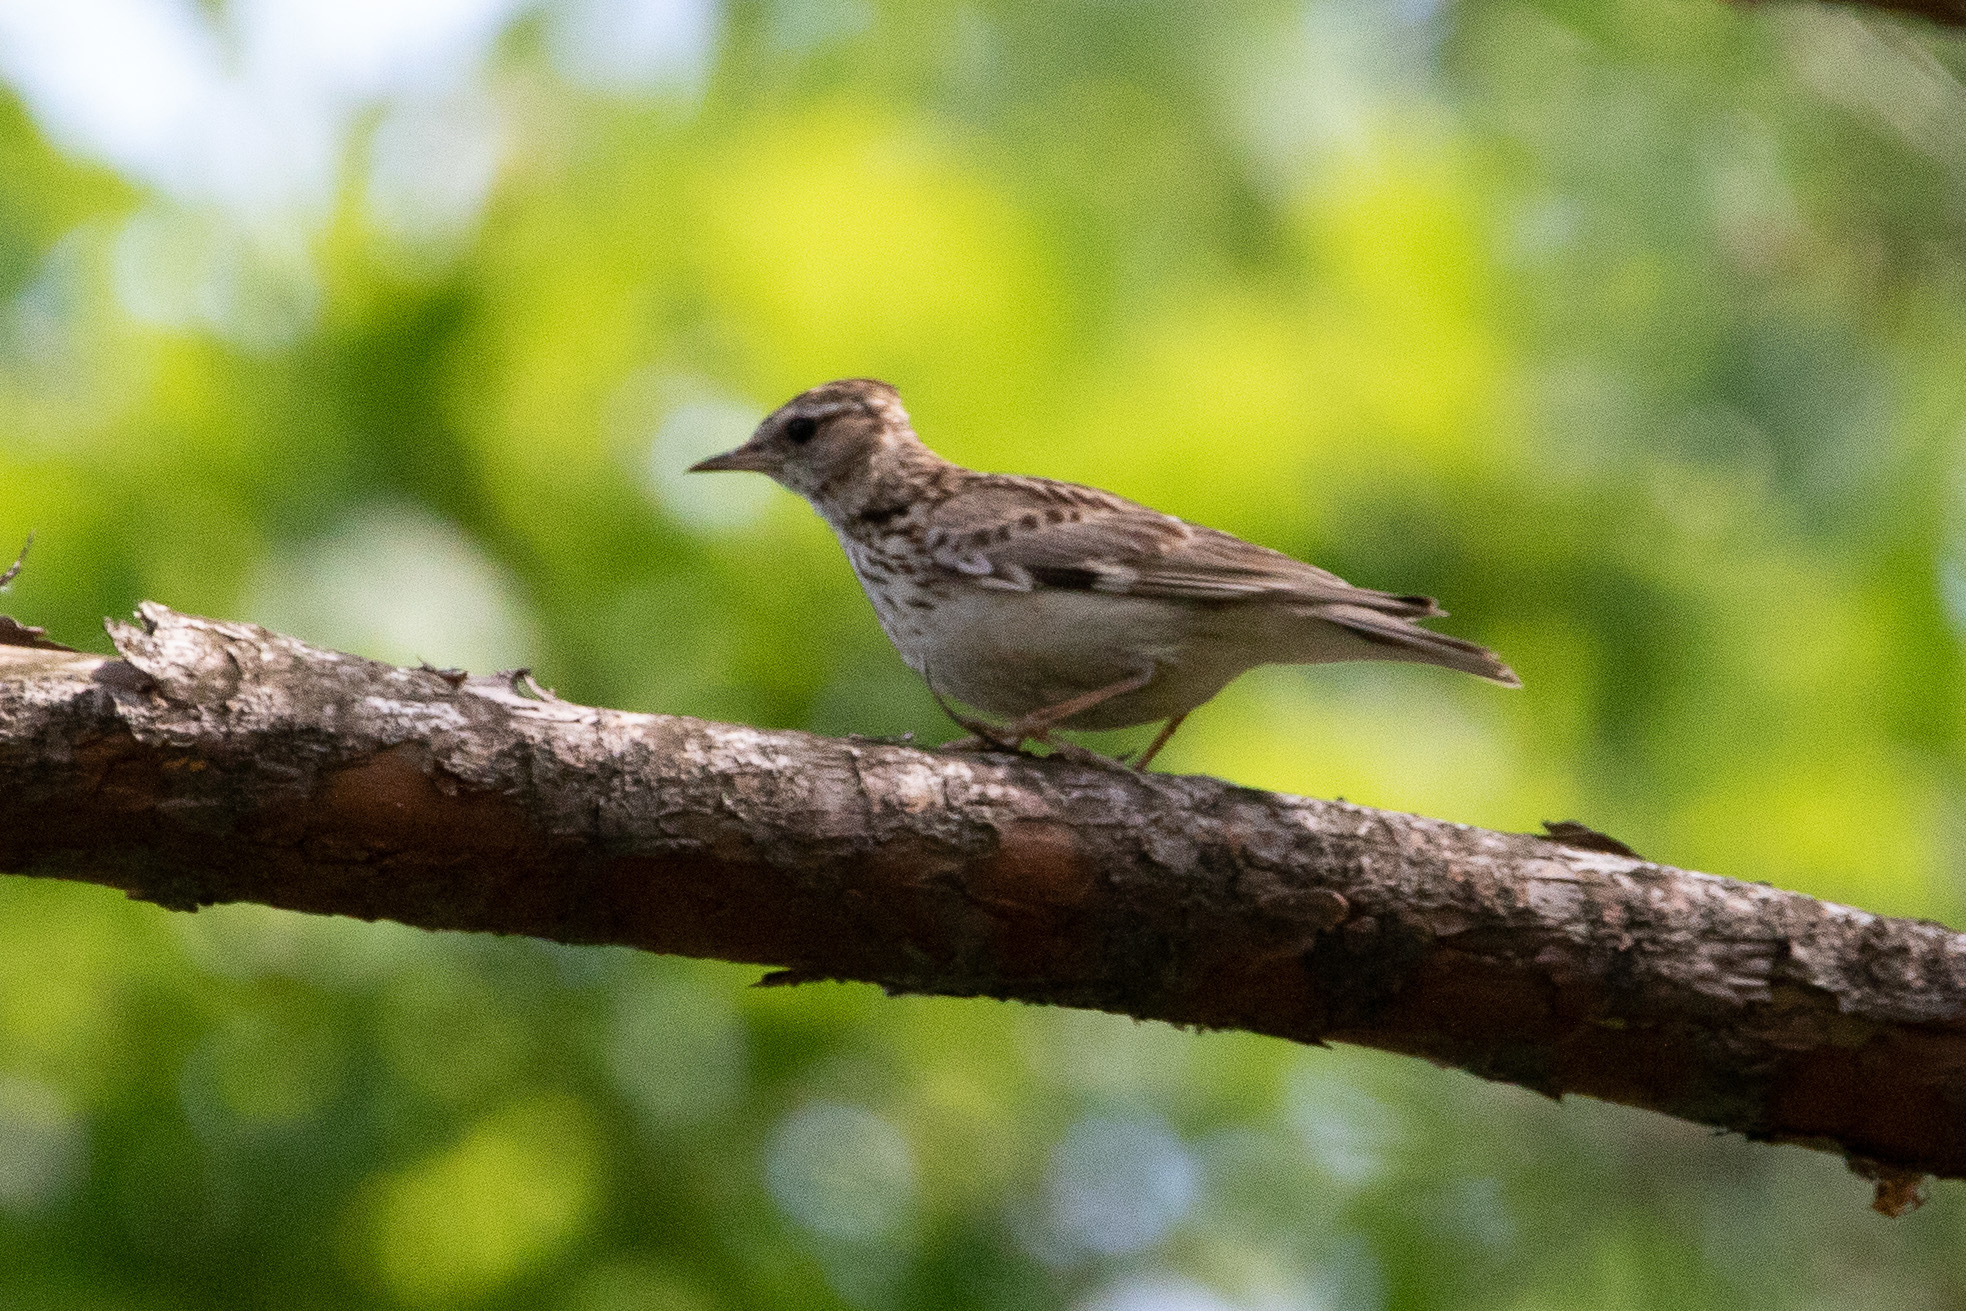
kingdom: Animalia
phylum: Chordata
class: Aves
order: Passeriformes
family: Alaudidae
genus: Lullula
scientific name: Lullula arborea
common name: Woodlark
